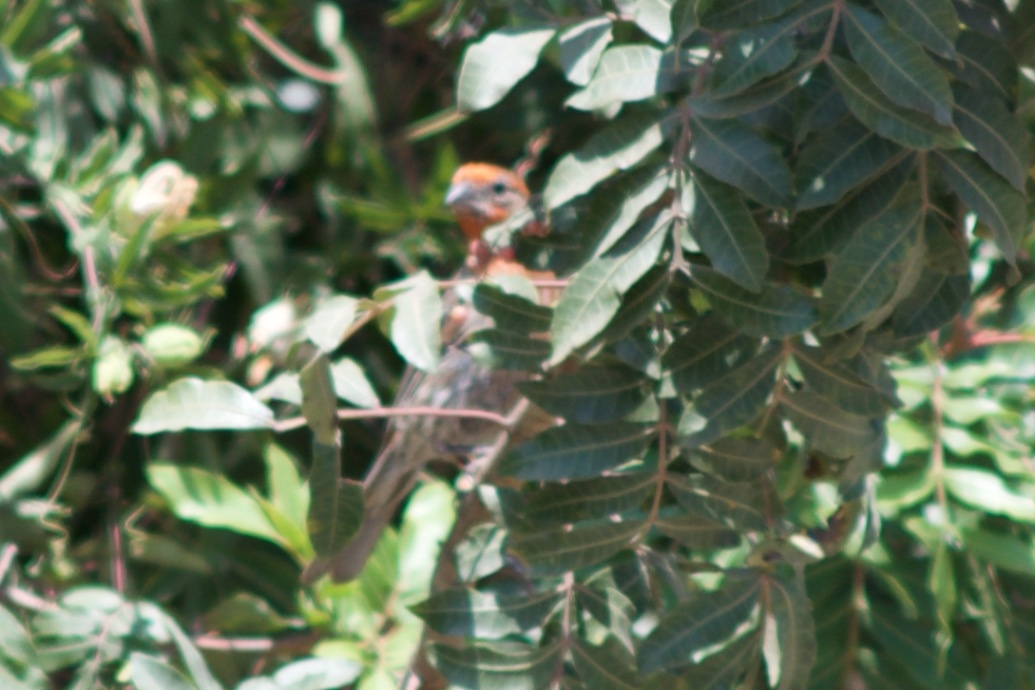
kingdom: Animalia
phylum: Chordata
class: Aves
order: Passeriformes
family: Fringillidae
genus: Haemorhous
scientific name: Haemorhous mexicanus
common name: House finch
